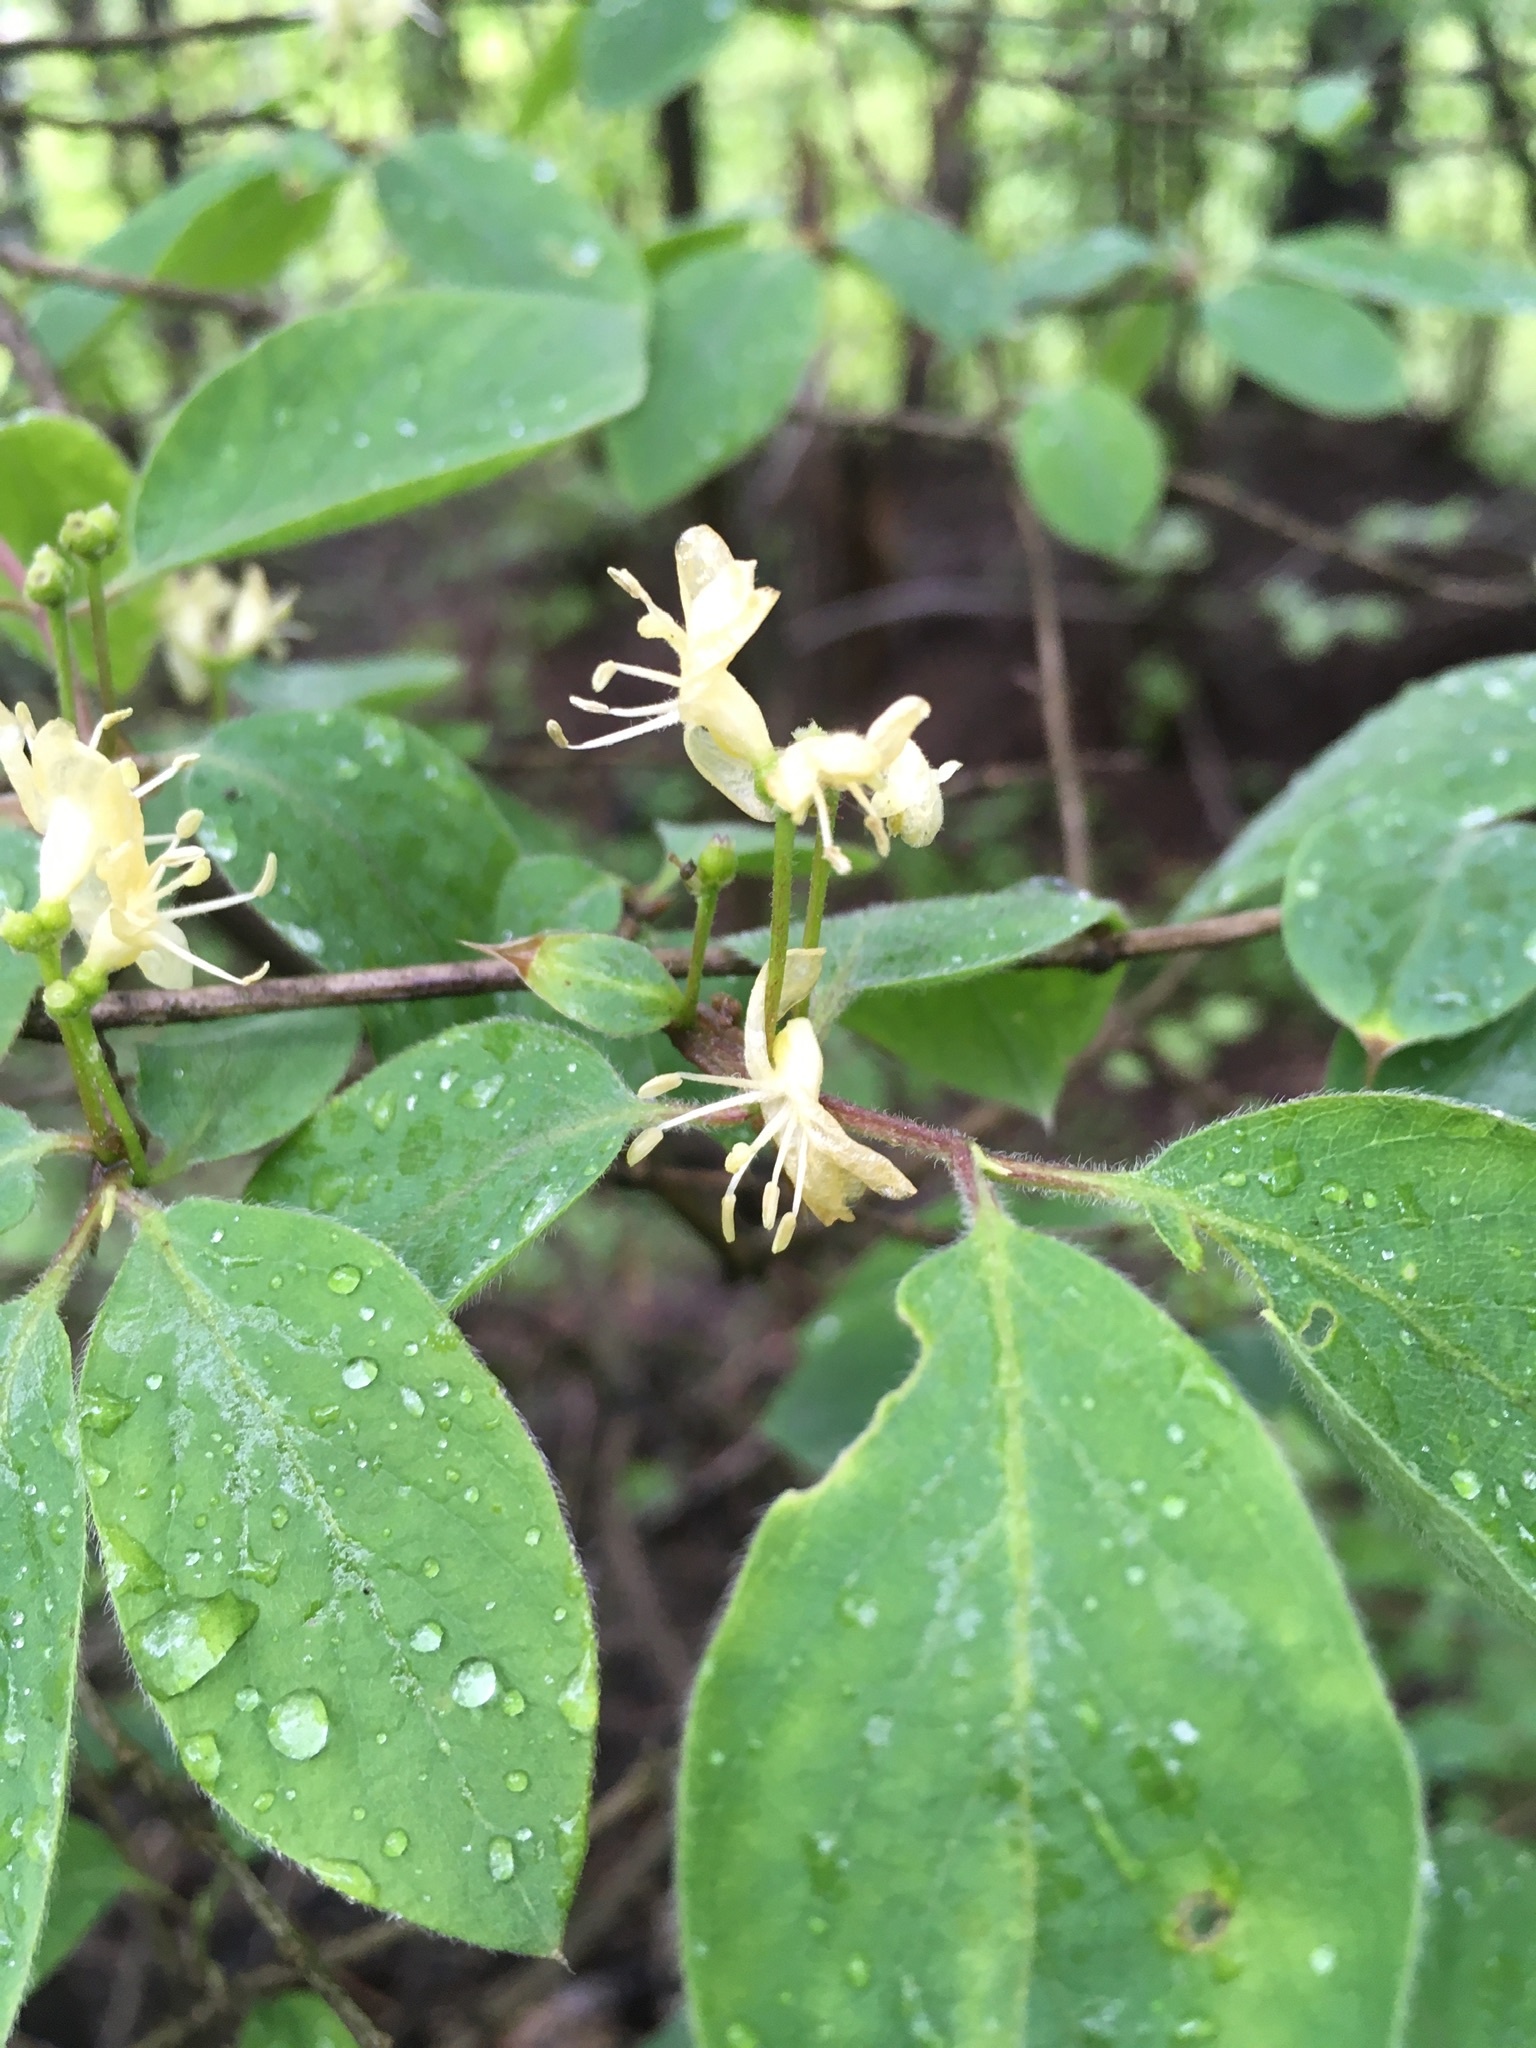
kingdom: Plantae
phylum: Tracheophyta
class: Magnoliopsida
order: Dipsacales
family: Caprifoliaceae
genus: Lonicera
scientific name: Lonicera xylosteum
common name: Fly honeysuckle
